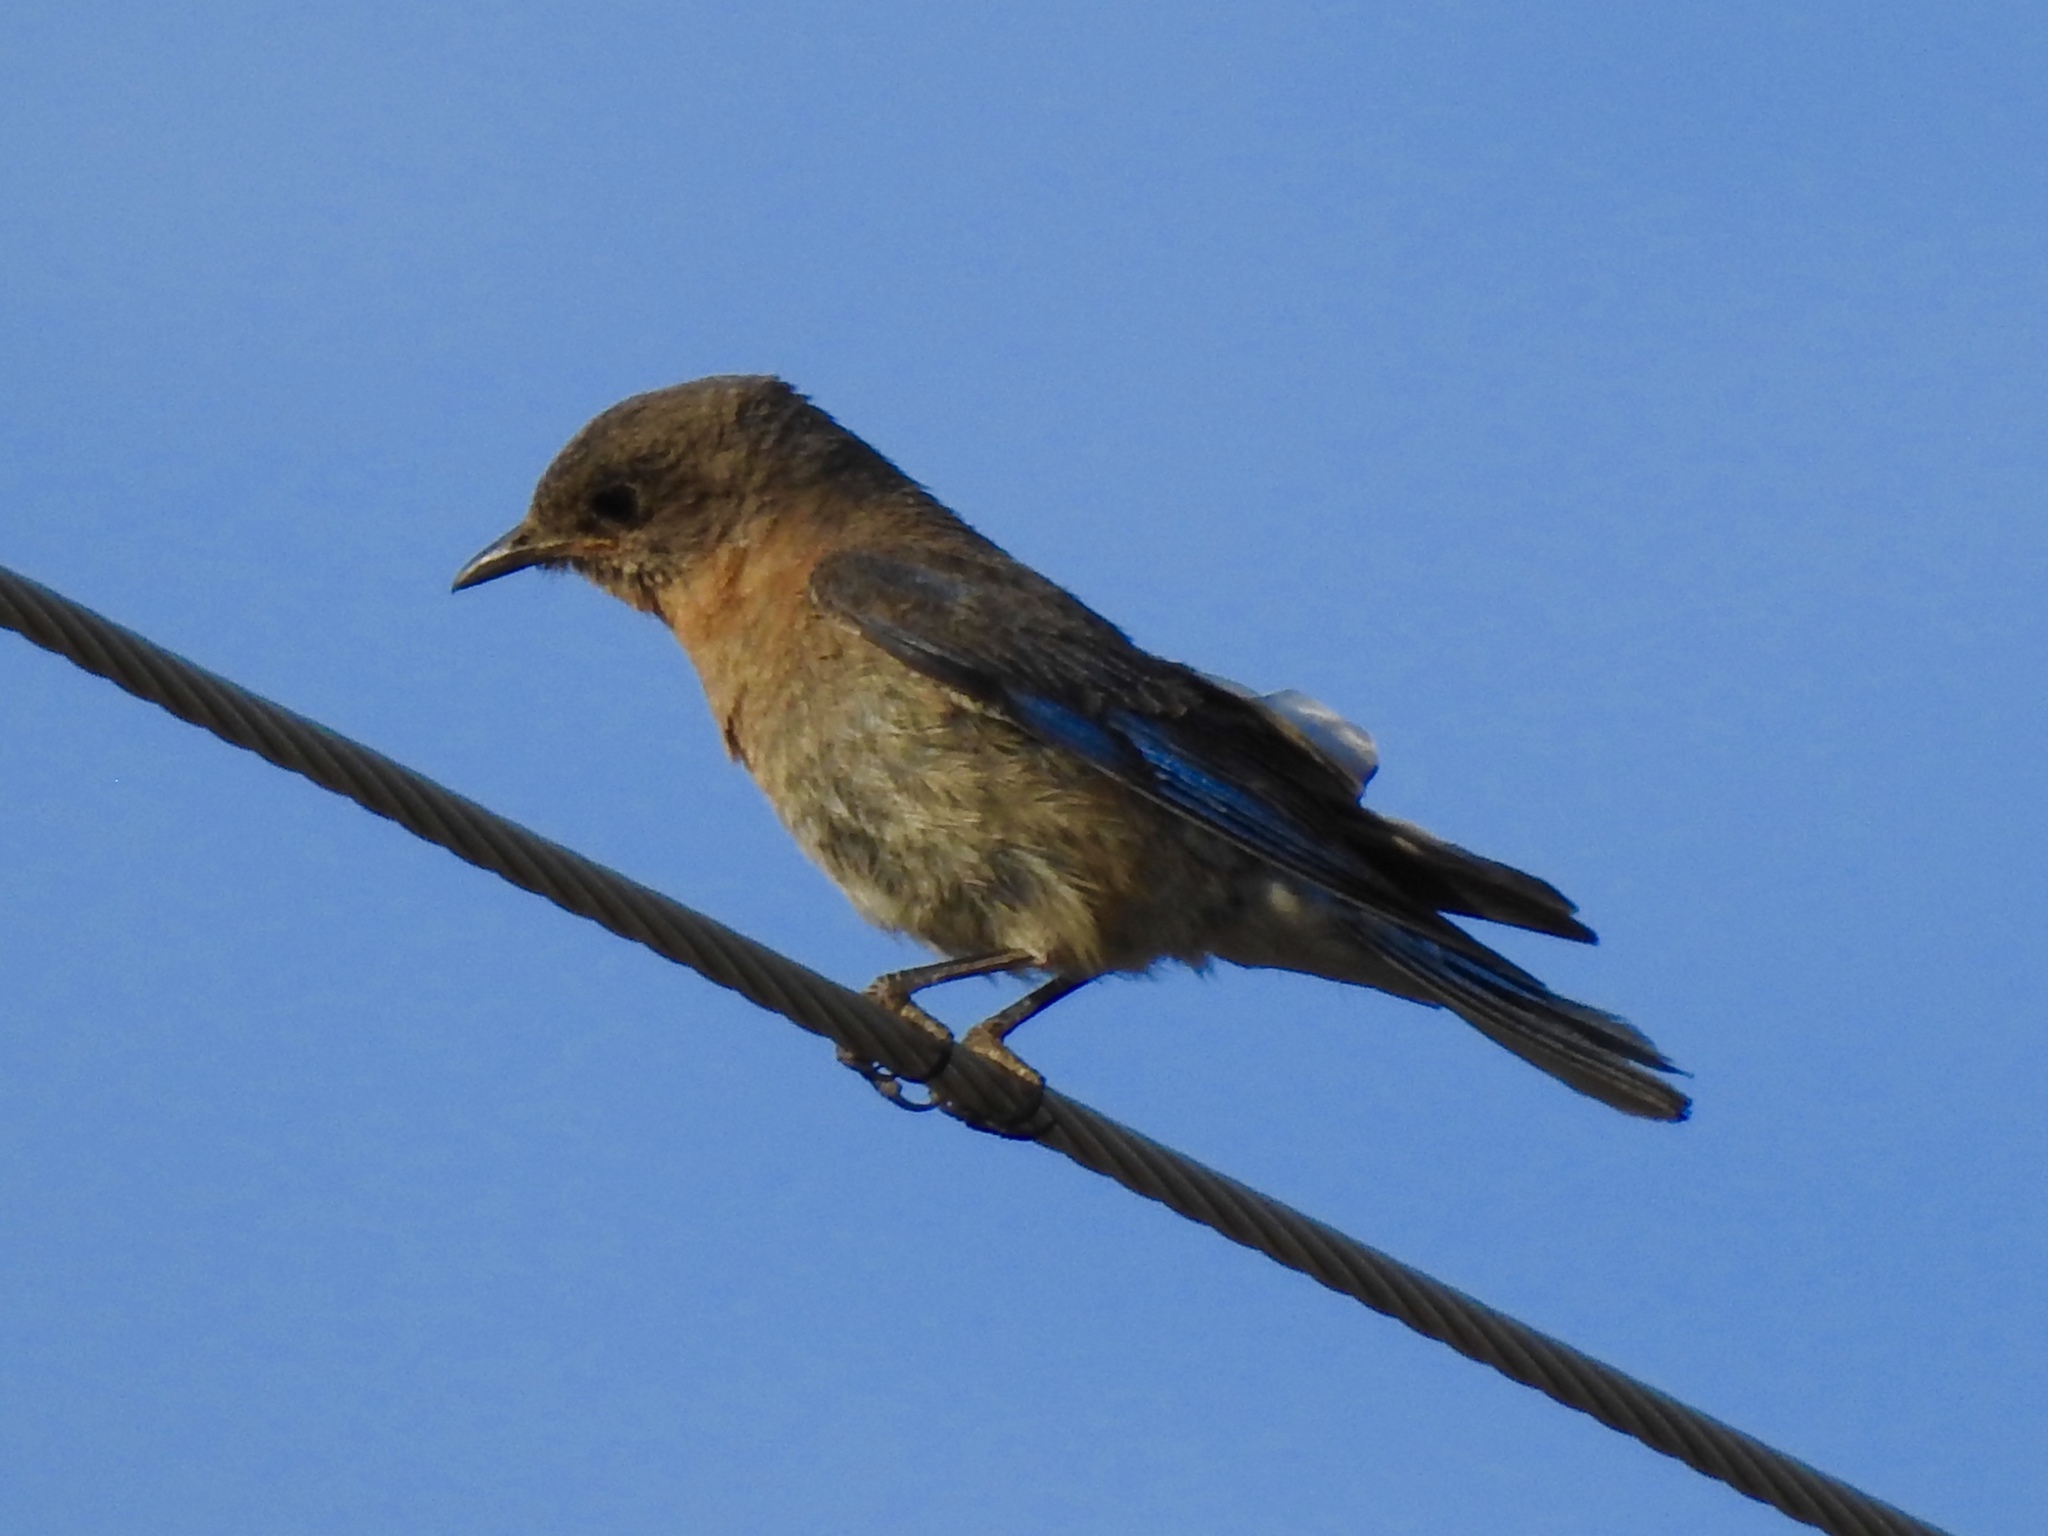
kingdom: Animalia
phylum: Chordata
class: Aves
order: Passeriformes
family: Turdidae
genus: Sialia
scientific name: Sialia sialis
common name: Eastern bluebird
